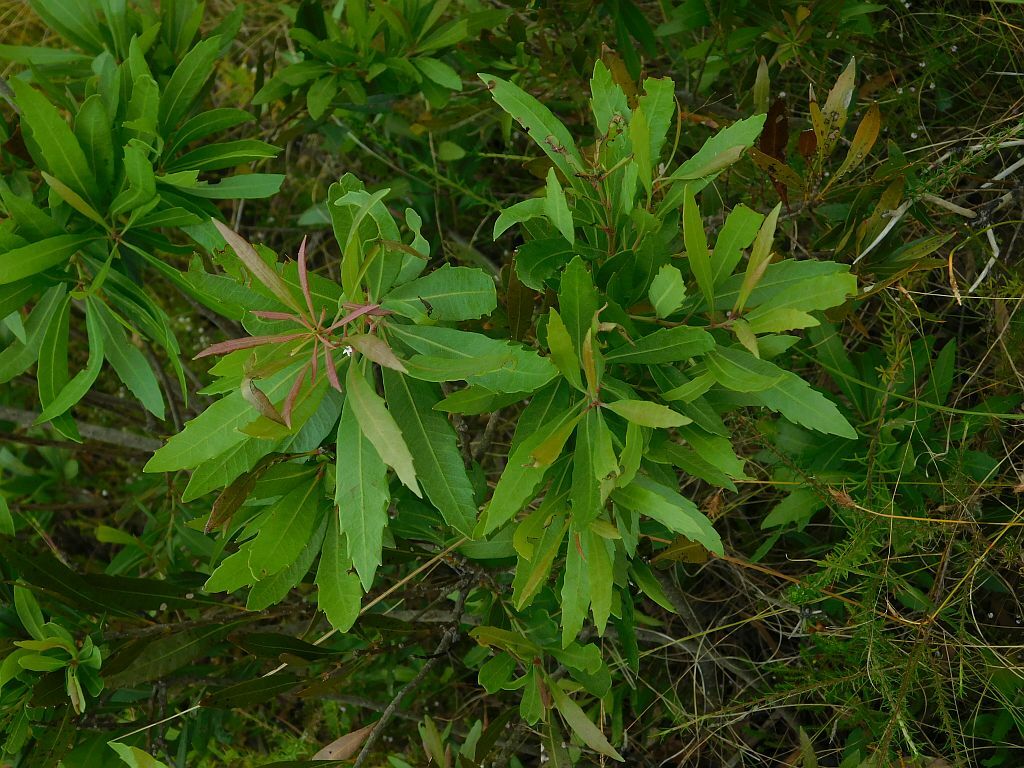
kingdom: Plantae
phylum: Tracheophyta
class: Magnoliopsida
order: Proteales
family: Proteaceae
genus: Brabejum
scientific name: Brabejum stellatifolium
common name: Wild almond
